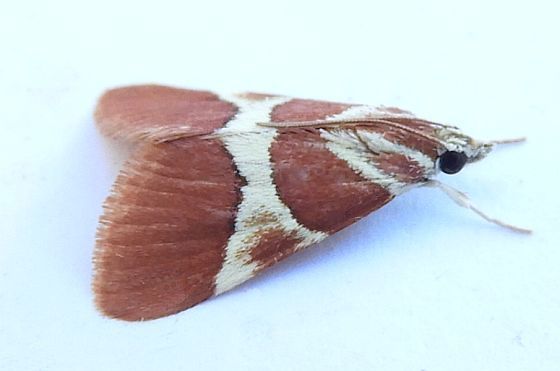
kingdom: Animalia
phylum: Arthropoda
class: Insecta
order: Lepidoptera
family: Crambidae
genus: Jativa
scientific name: Jativa castanealis
